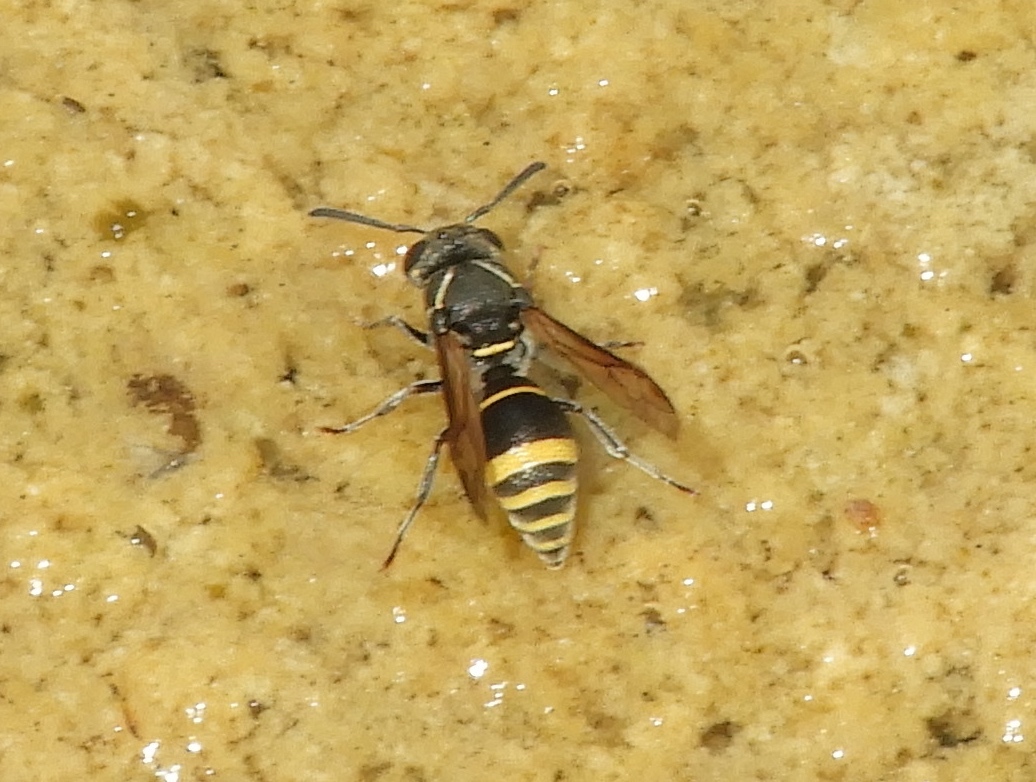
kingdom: Animalia
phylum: Arthropoda
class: Insecta
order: Hymenoptera
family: Eumenidae
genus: Pachodynerus
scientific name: Pachodynerus
